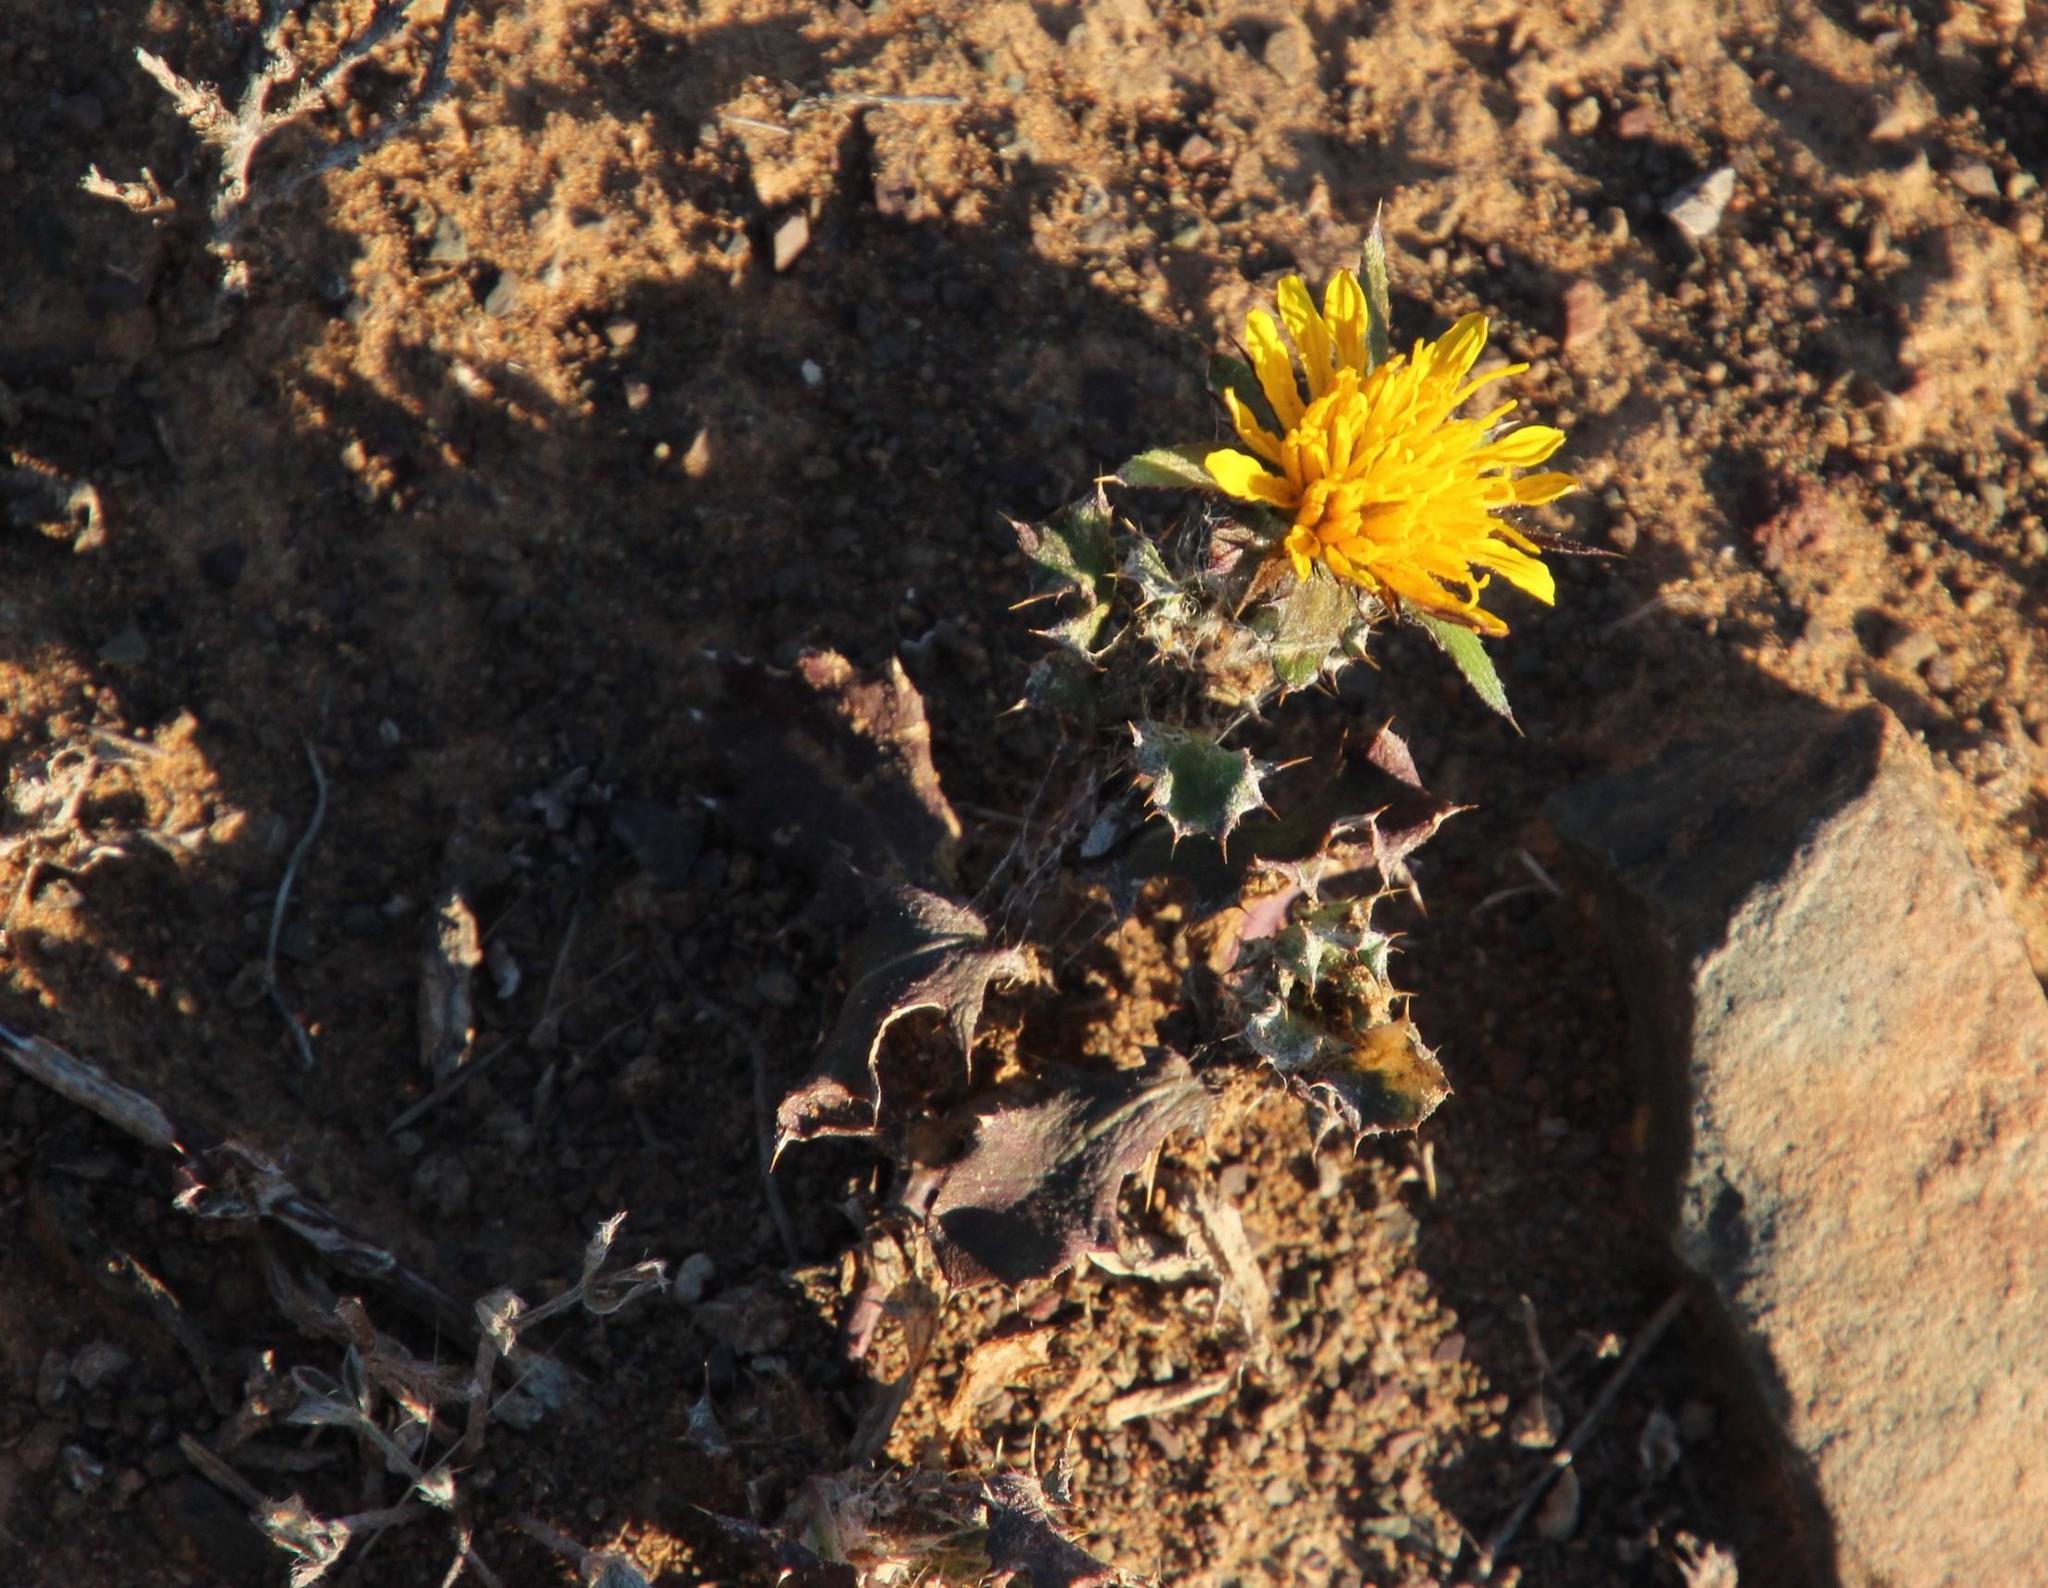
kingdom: Plantae
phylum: Tracheophyta
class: Magnoliopsida
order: Asterales
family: Asteraceae
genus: Cuspidia
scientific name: Cuspidia cernua
